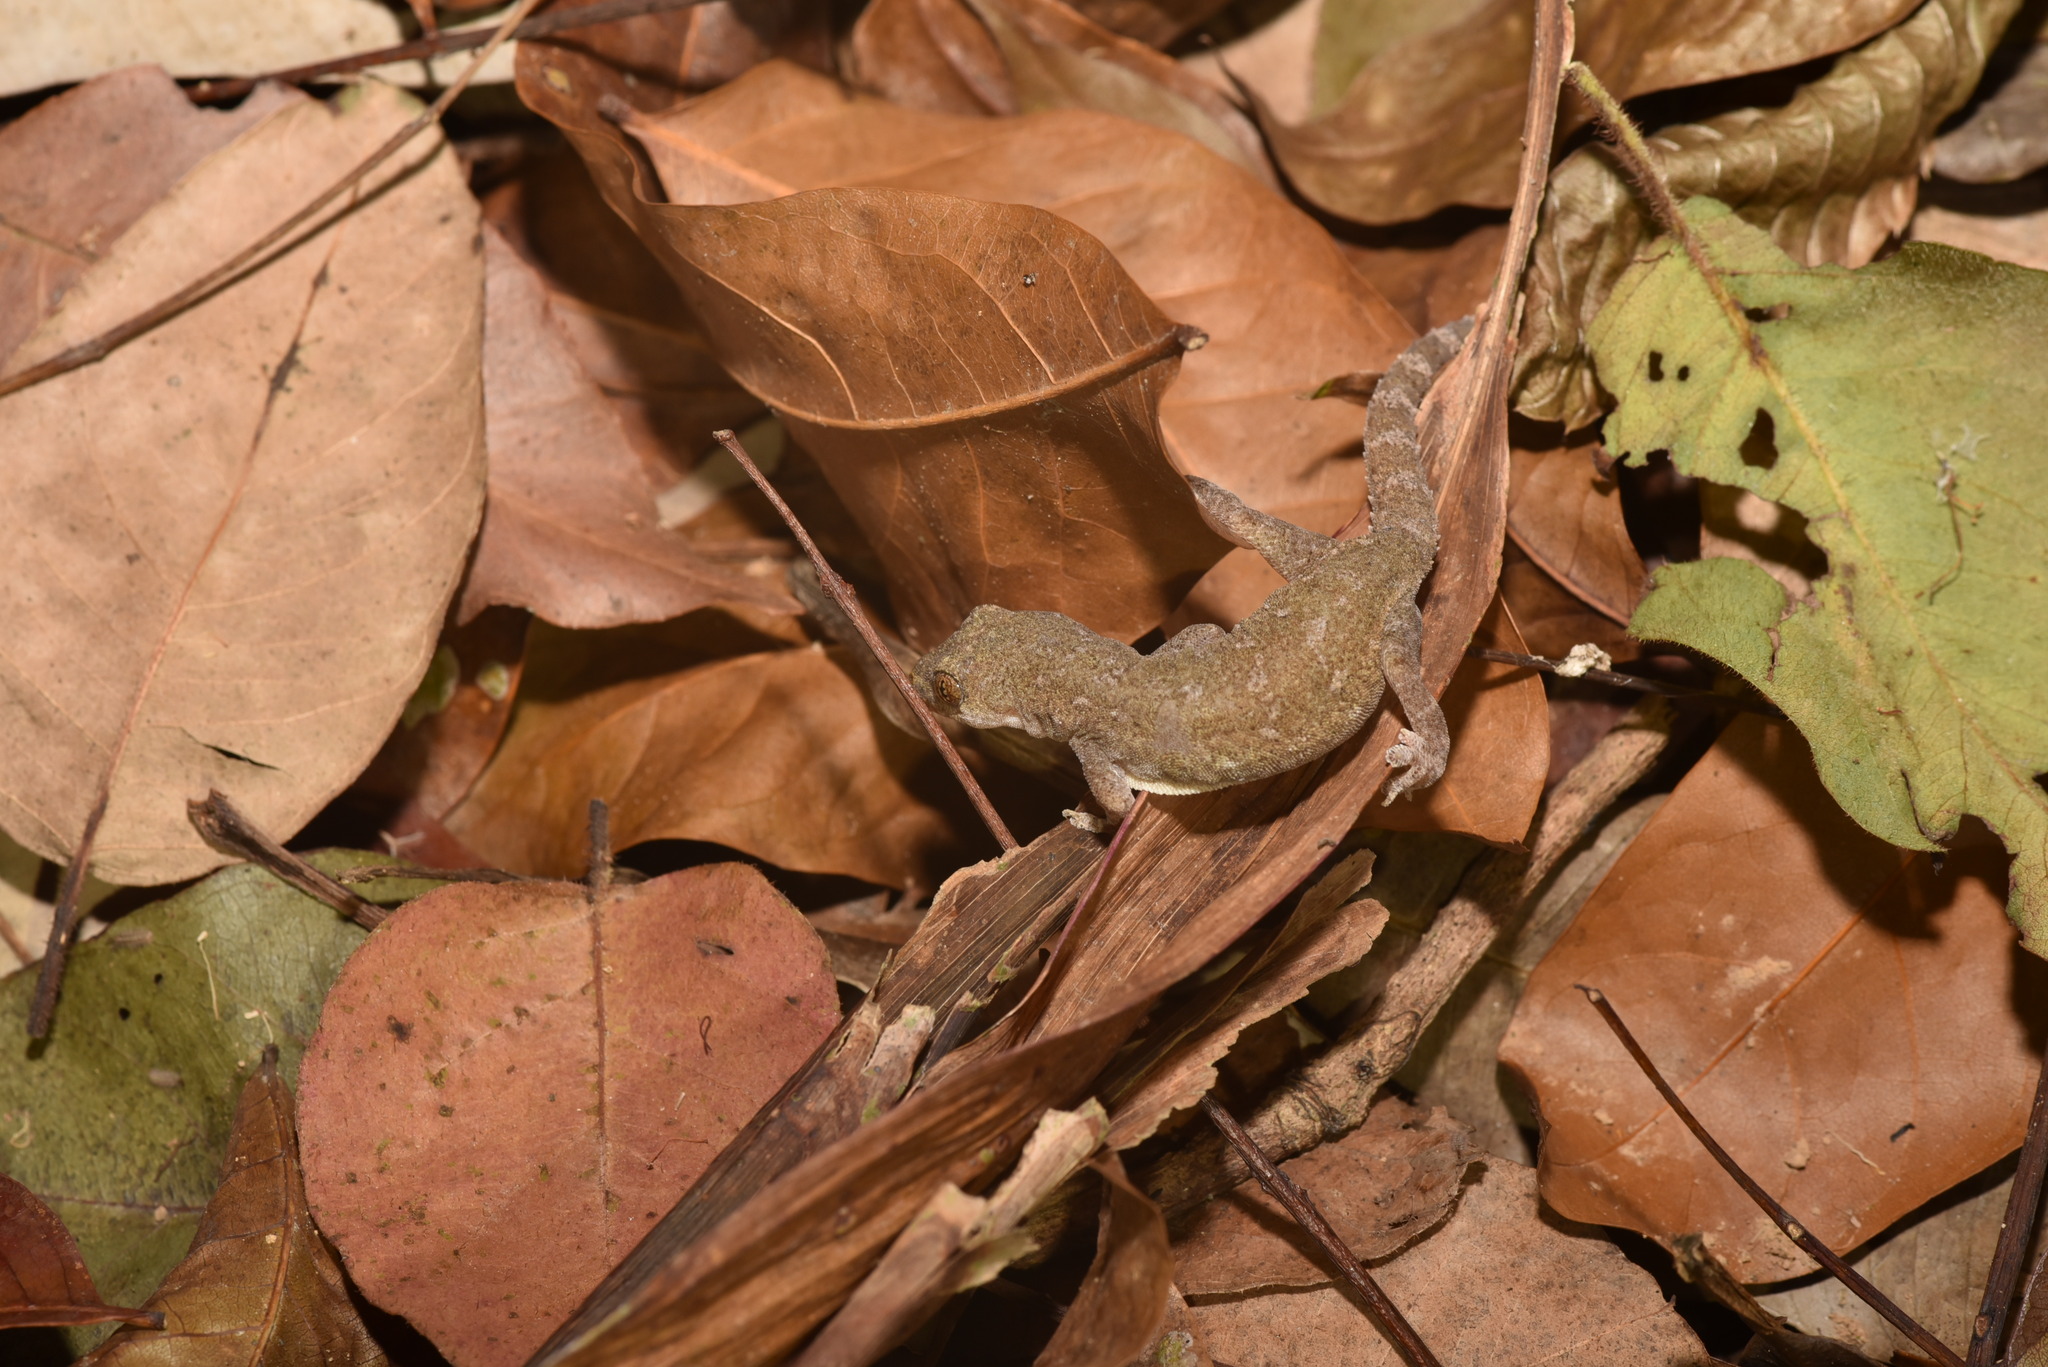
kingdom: Animalia
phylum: Chordata
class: Squamata
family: Gekkonidae
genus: Hemidactylus
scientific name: Hemidactylus frenatus
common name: Common house gecko
